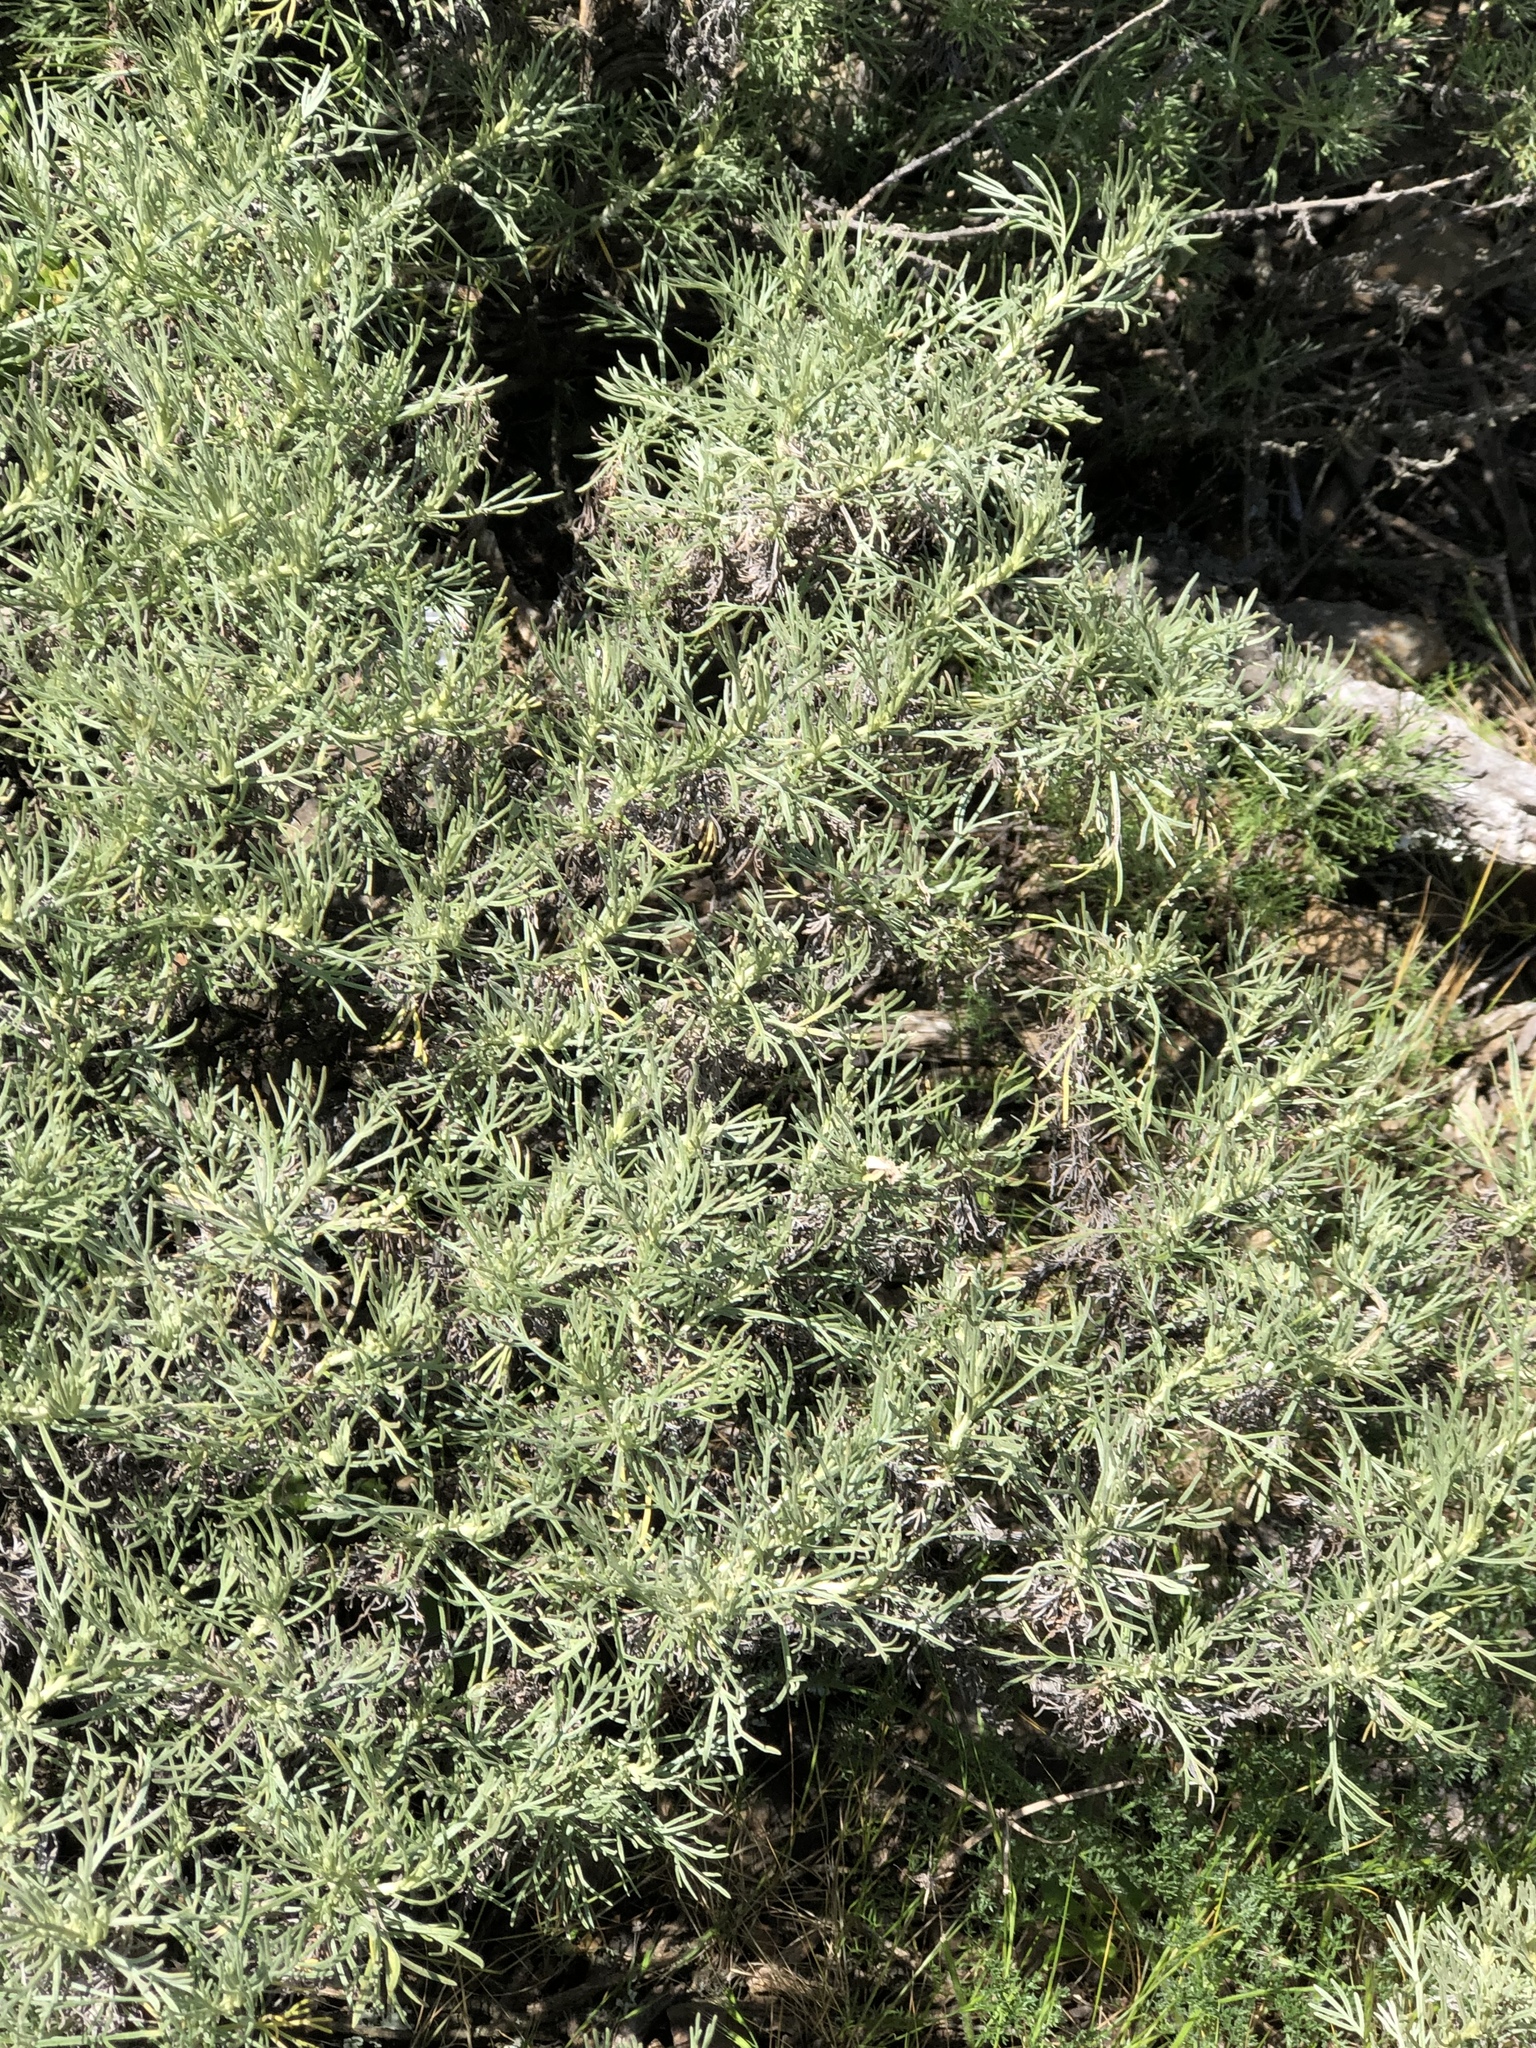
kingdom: Plantae
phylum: Tracheophyta
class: Magnoliopsida
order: Asterales
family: Asteraceae
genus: Artemisia
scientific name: Artemisia californica
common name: California sagebrush
